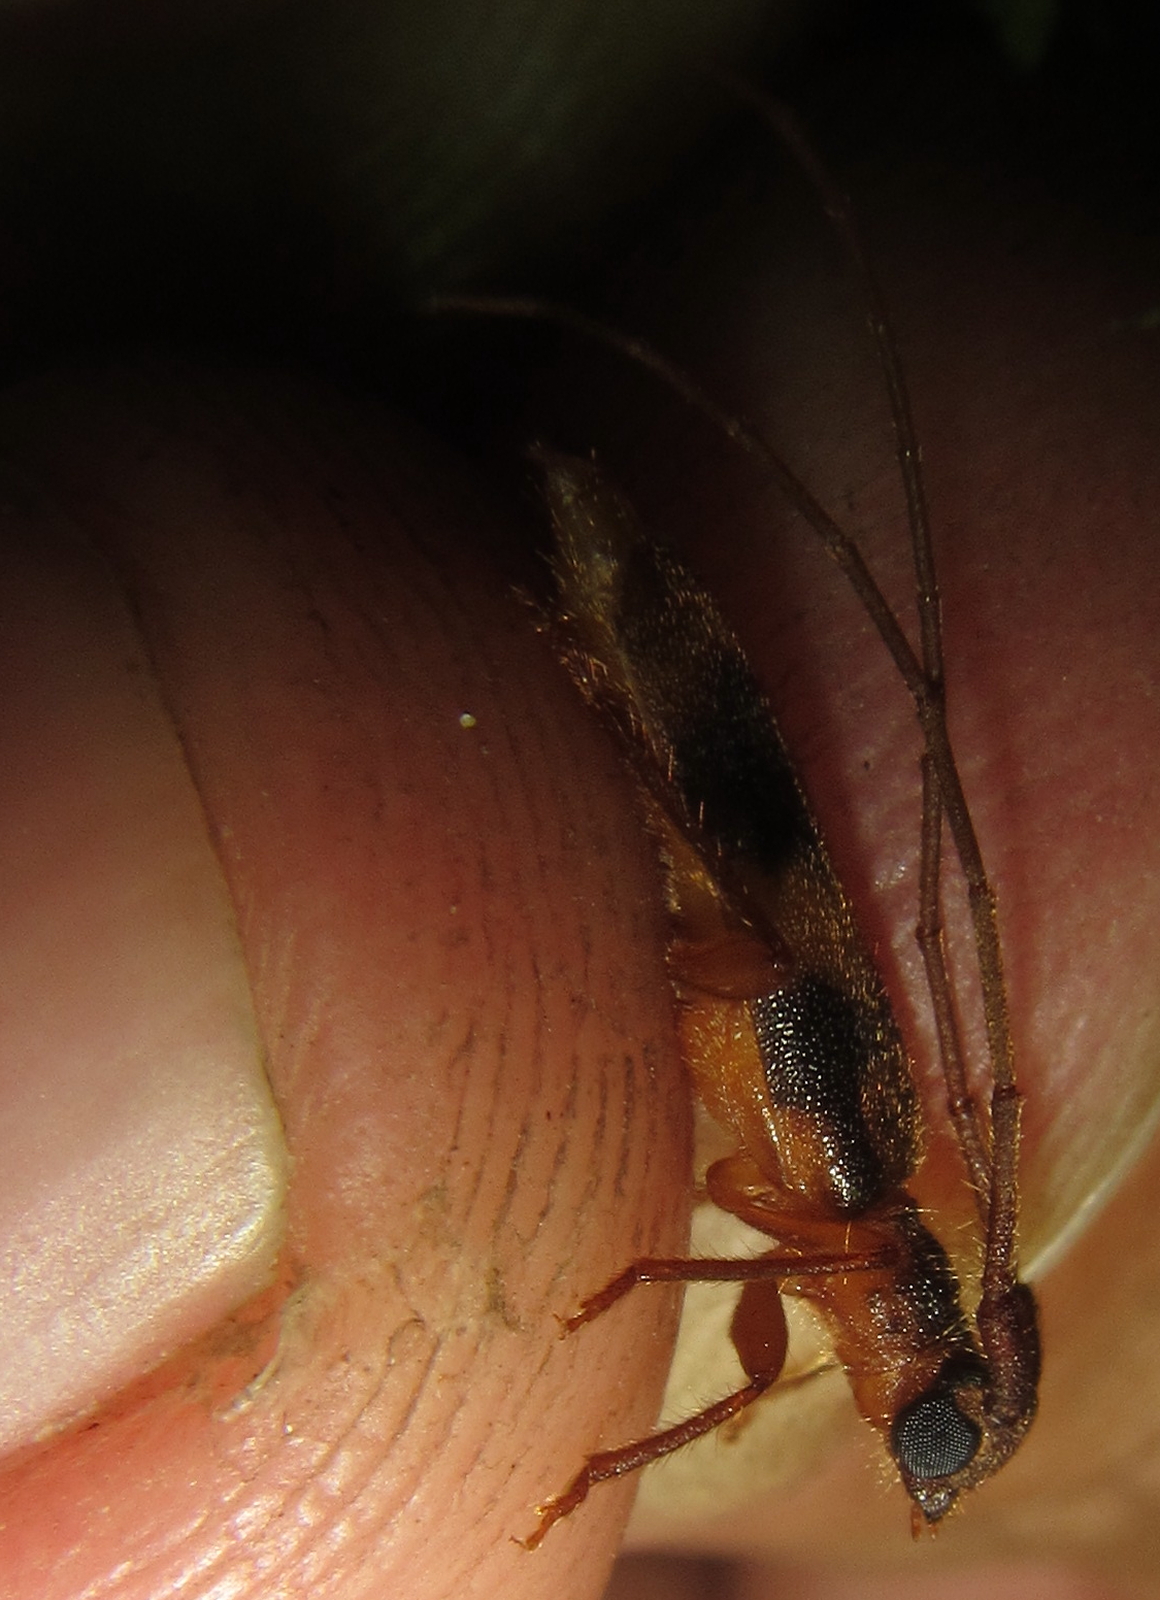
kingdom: Animalia
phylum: Arthropoda
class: Insecta
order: Coleoptera
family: Cerambycidae
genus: Catoeme
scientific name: Catoeme brincki
